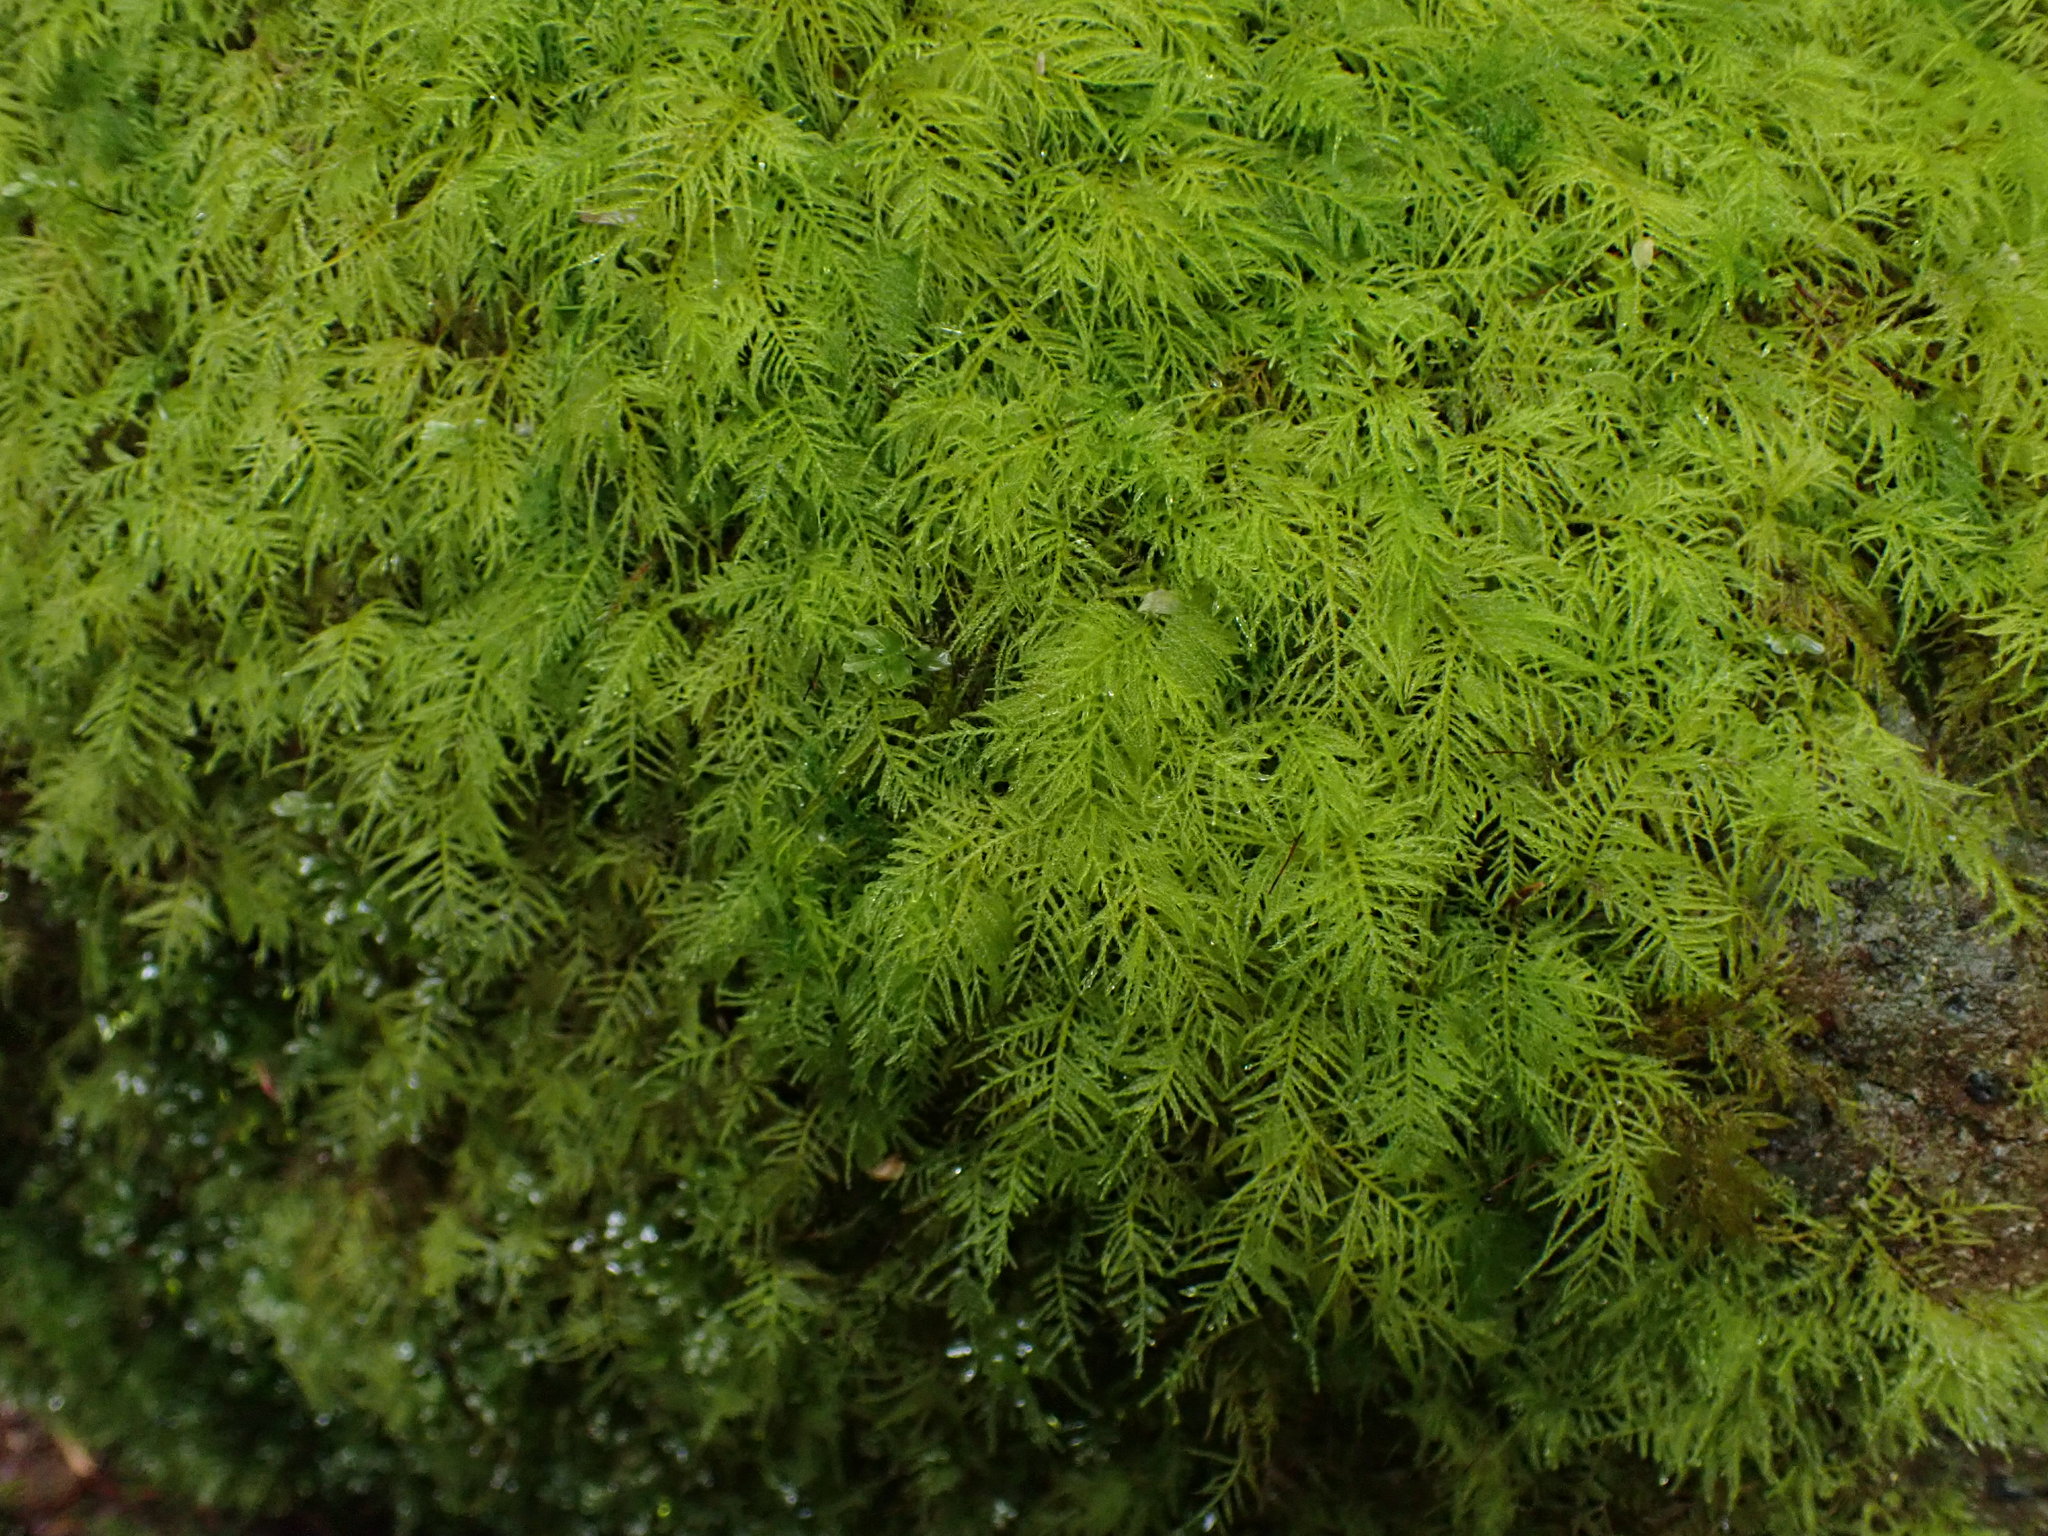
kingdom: Plantae
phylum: Bryophyta
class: Bryopsida
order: Hypnales
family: Brachytheciaceae
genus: Kindbergia
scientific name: Kindbergia praelonga
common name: Slender beaked moss
